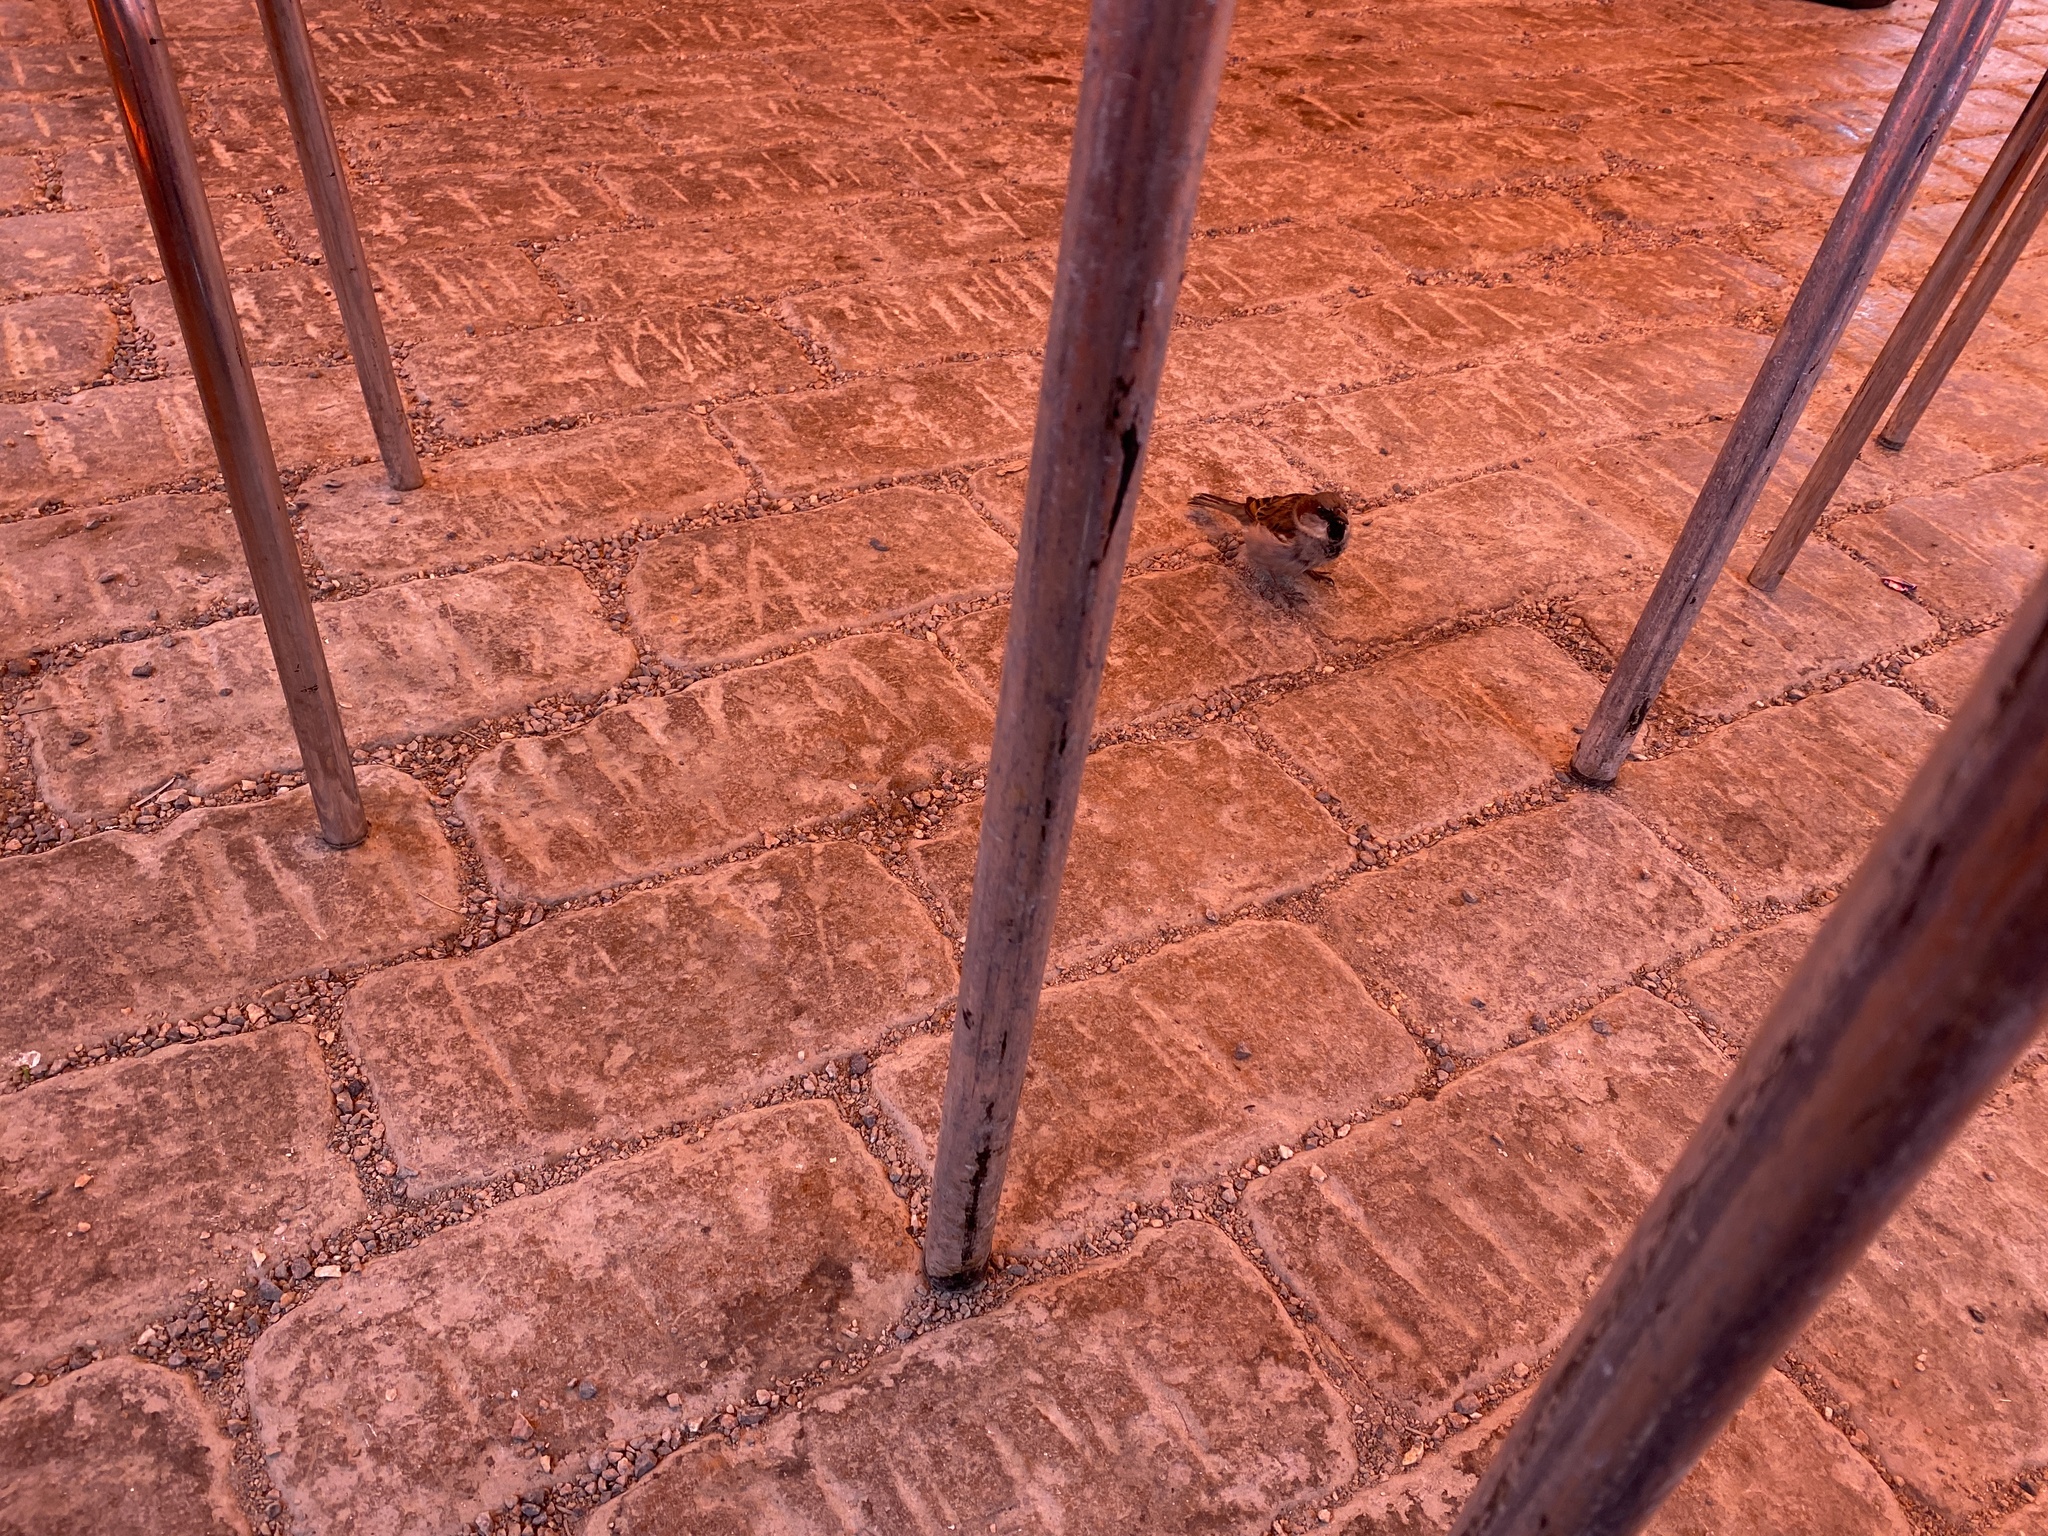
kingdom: Animalia
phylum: Chordata
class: Aves
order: Passeriformes
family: Passeridae
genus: Passer
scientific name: Passer domesticus
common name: House sparrow
